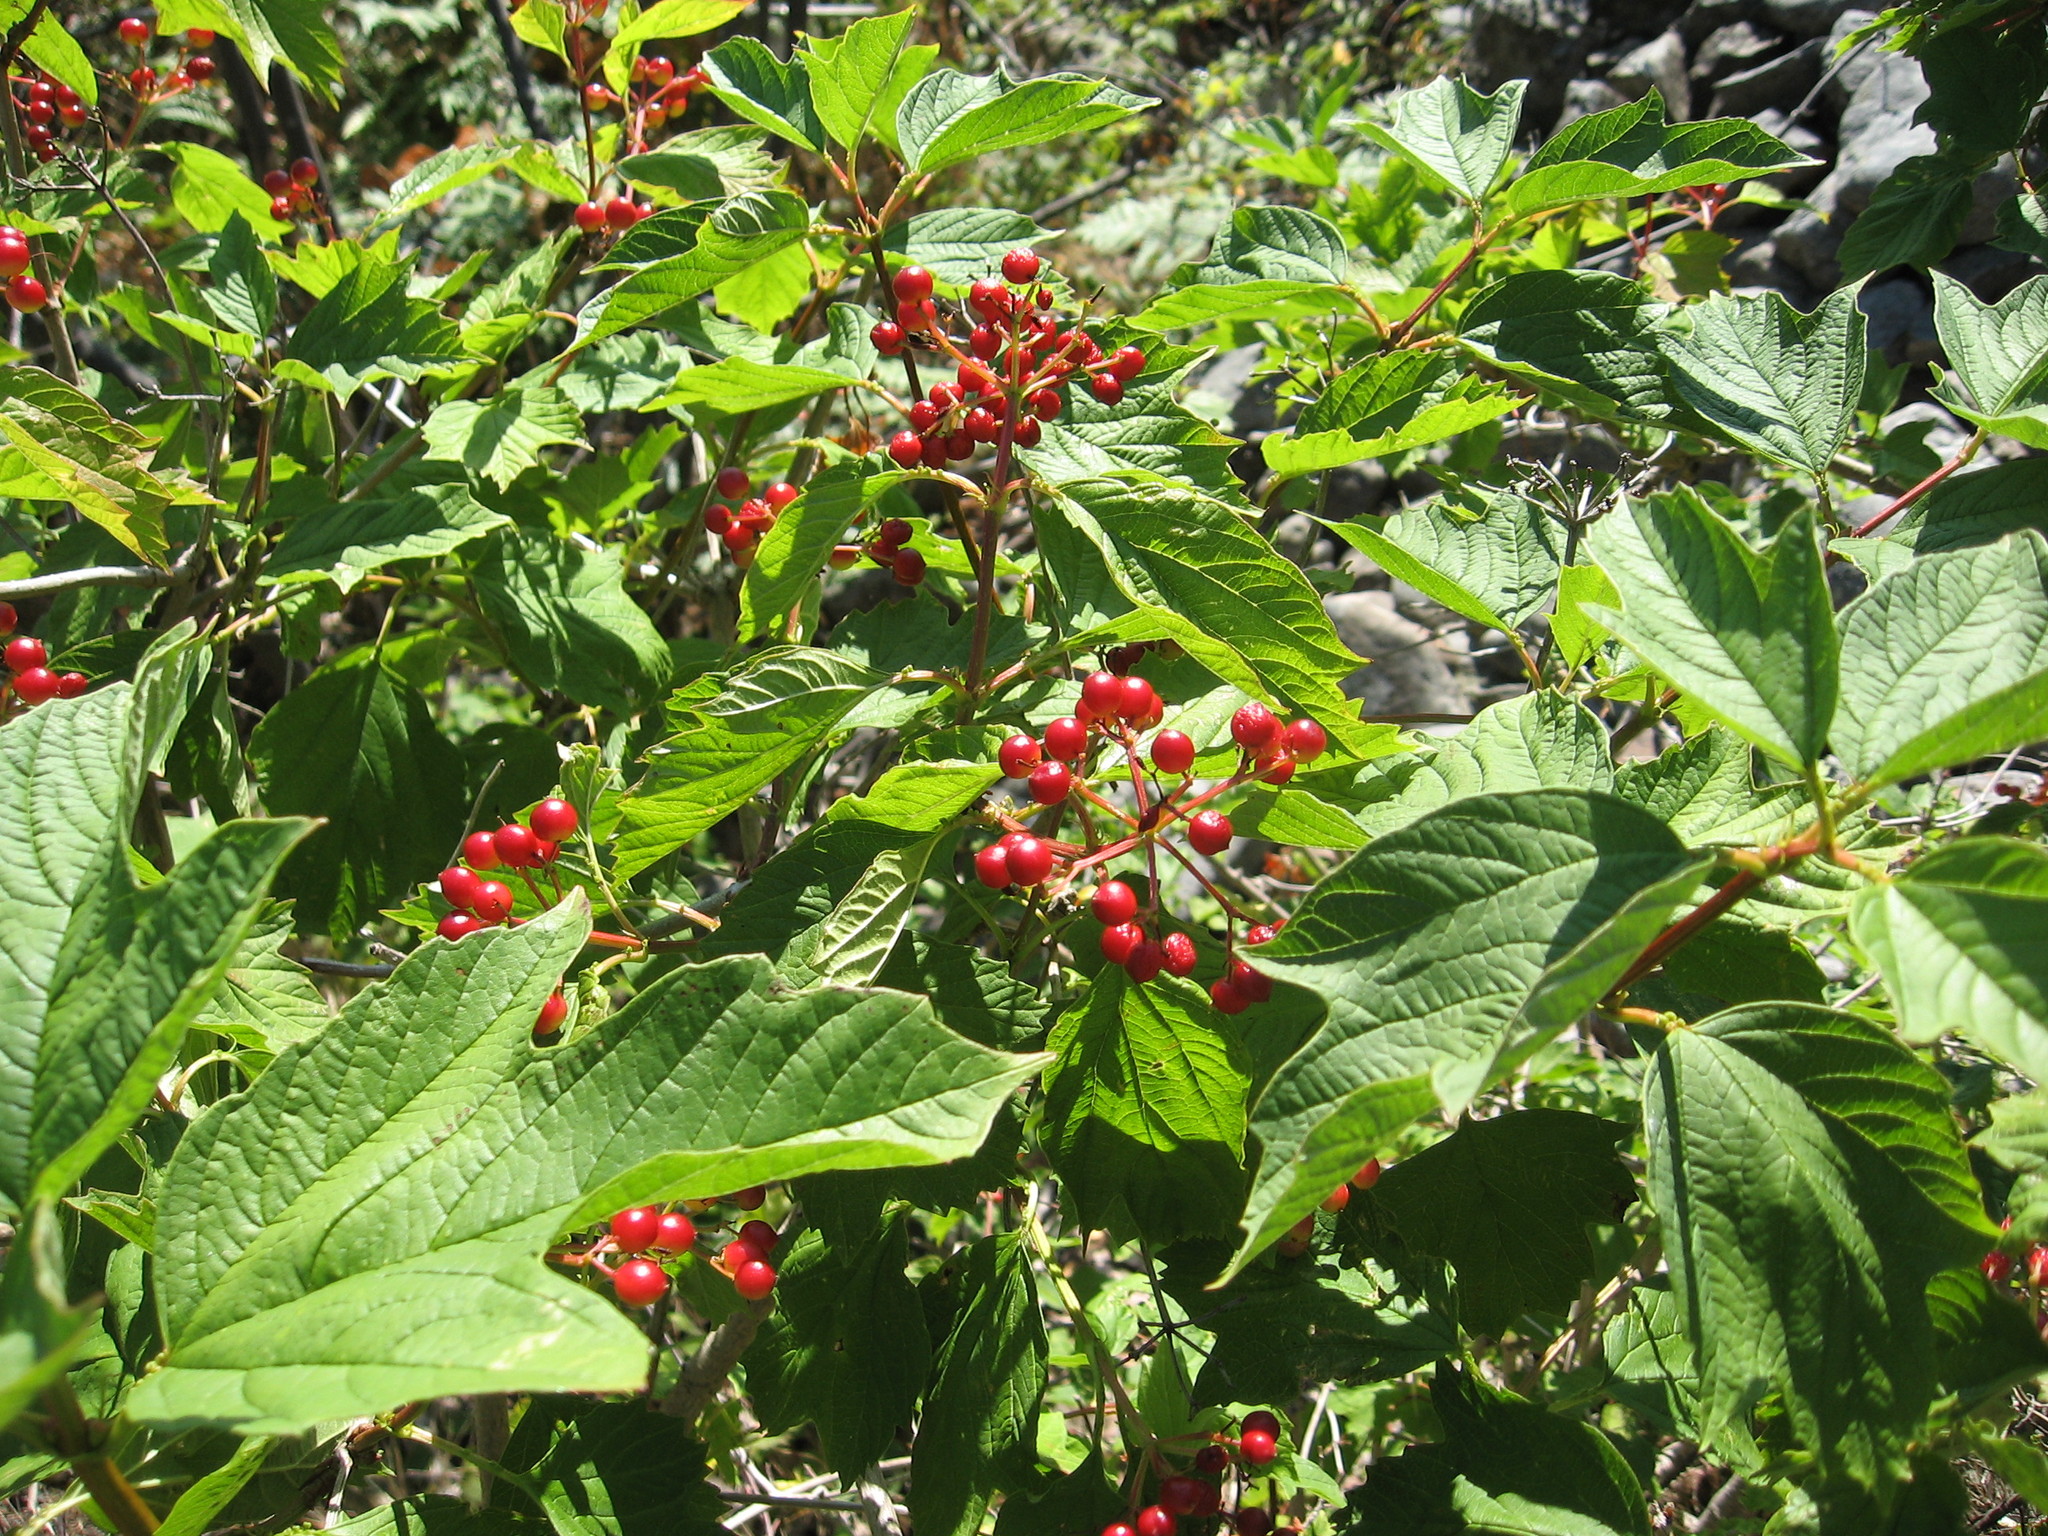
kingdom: Plantae
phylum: Tracheophyta
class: Magnoliopsida
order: Dipsacales
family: Viburnaceae
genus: Viburnum
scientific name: Viburnum opulus
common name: Guelder-rose
